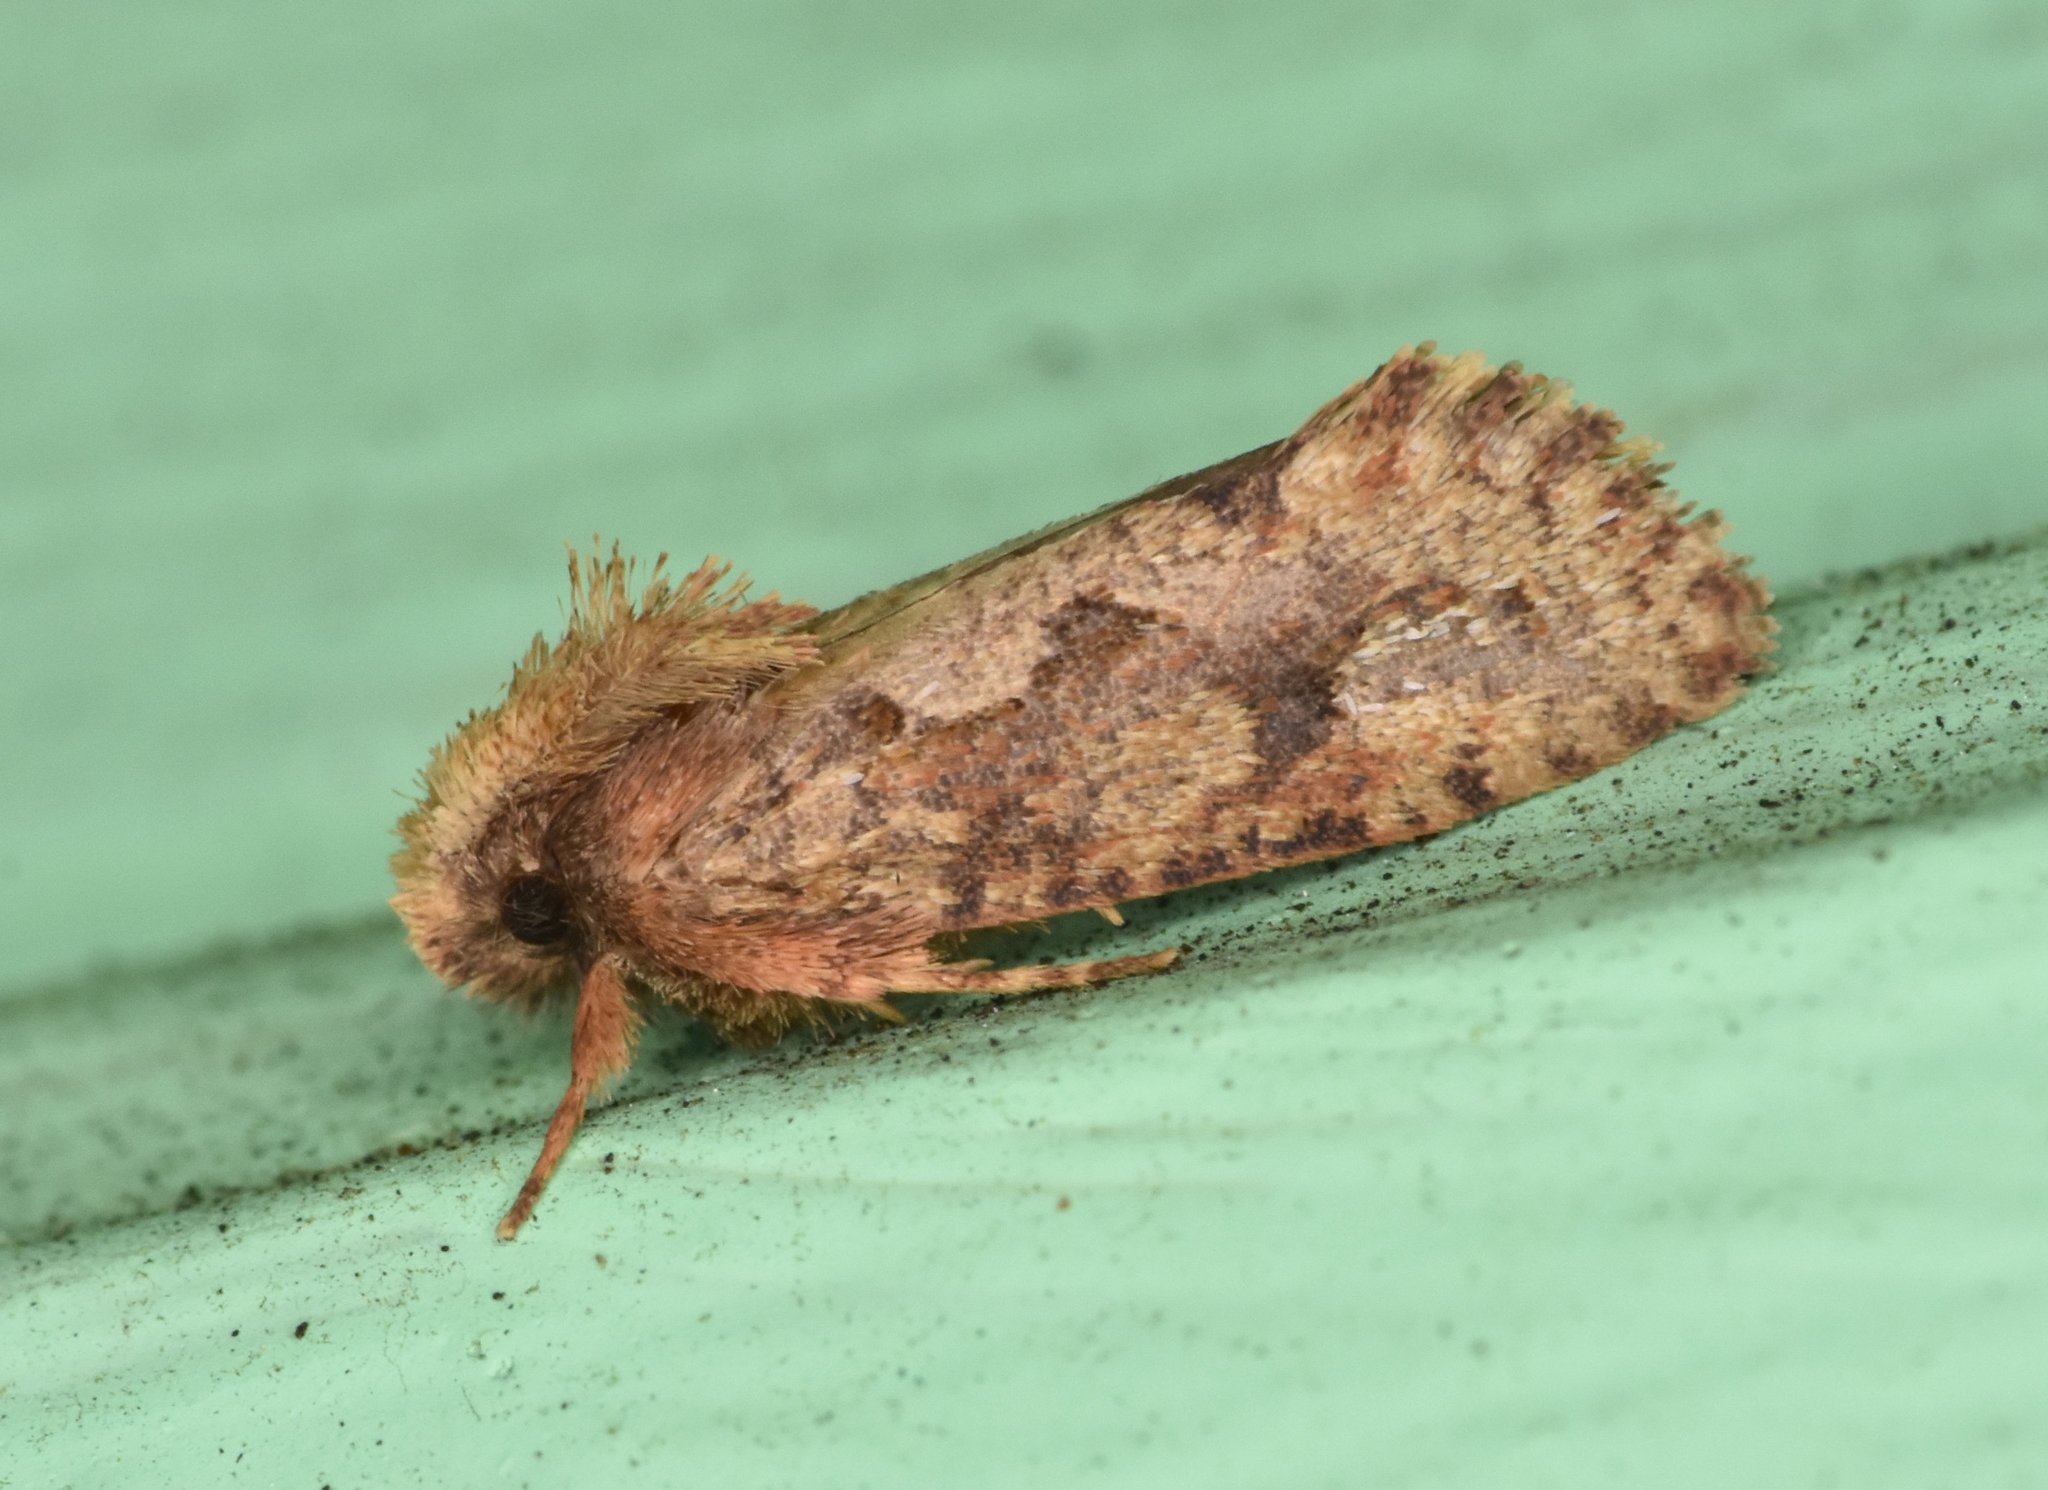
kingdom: Animalia
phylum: Arthropoda
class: Insecta
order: Lepidoptera
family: Tineidae
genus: Acrolophus
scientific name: Acrolophus walsinghami
